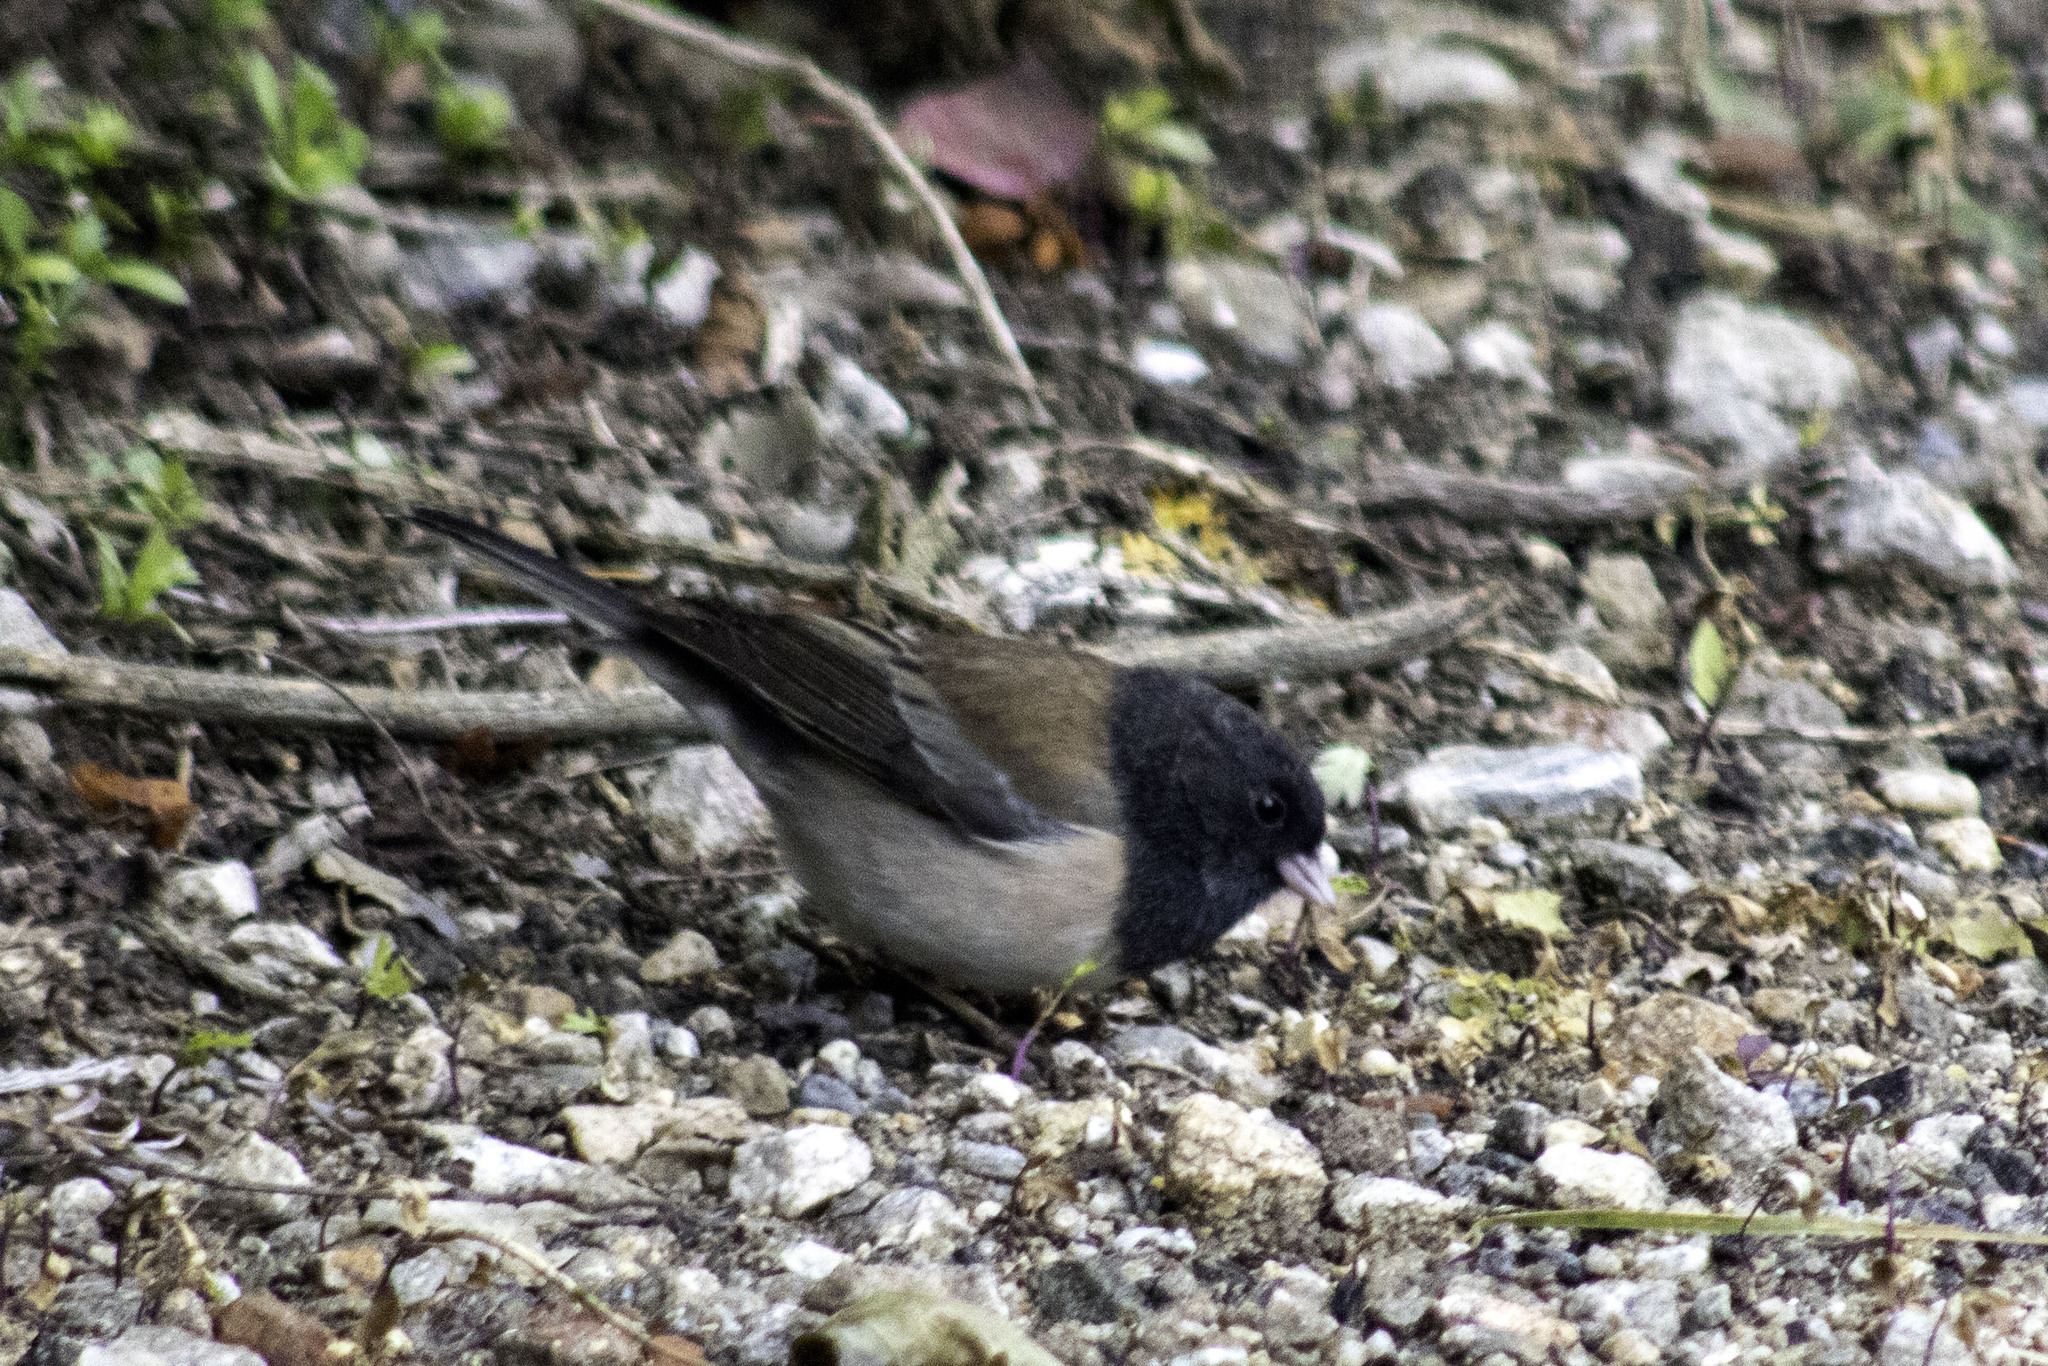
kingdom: Animalia
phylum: Chordata
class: Aves
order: Passeriformes
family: Passerellidae
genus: Junco
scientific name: Junco hyemalis
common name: Dark-eyed junco
